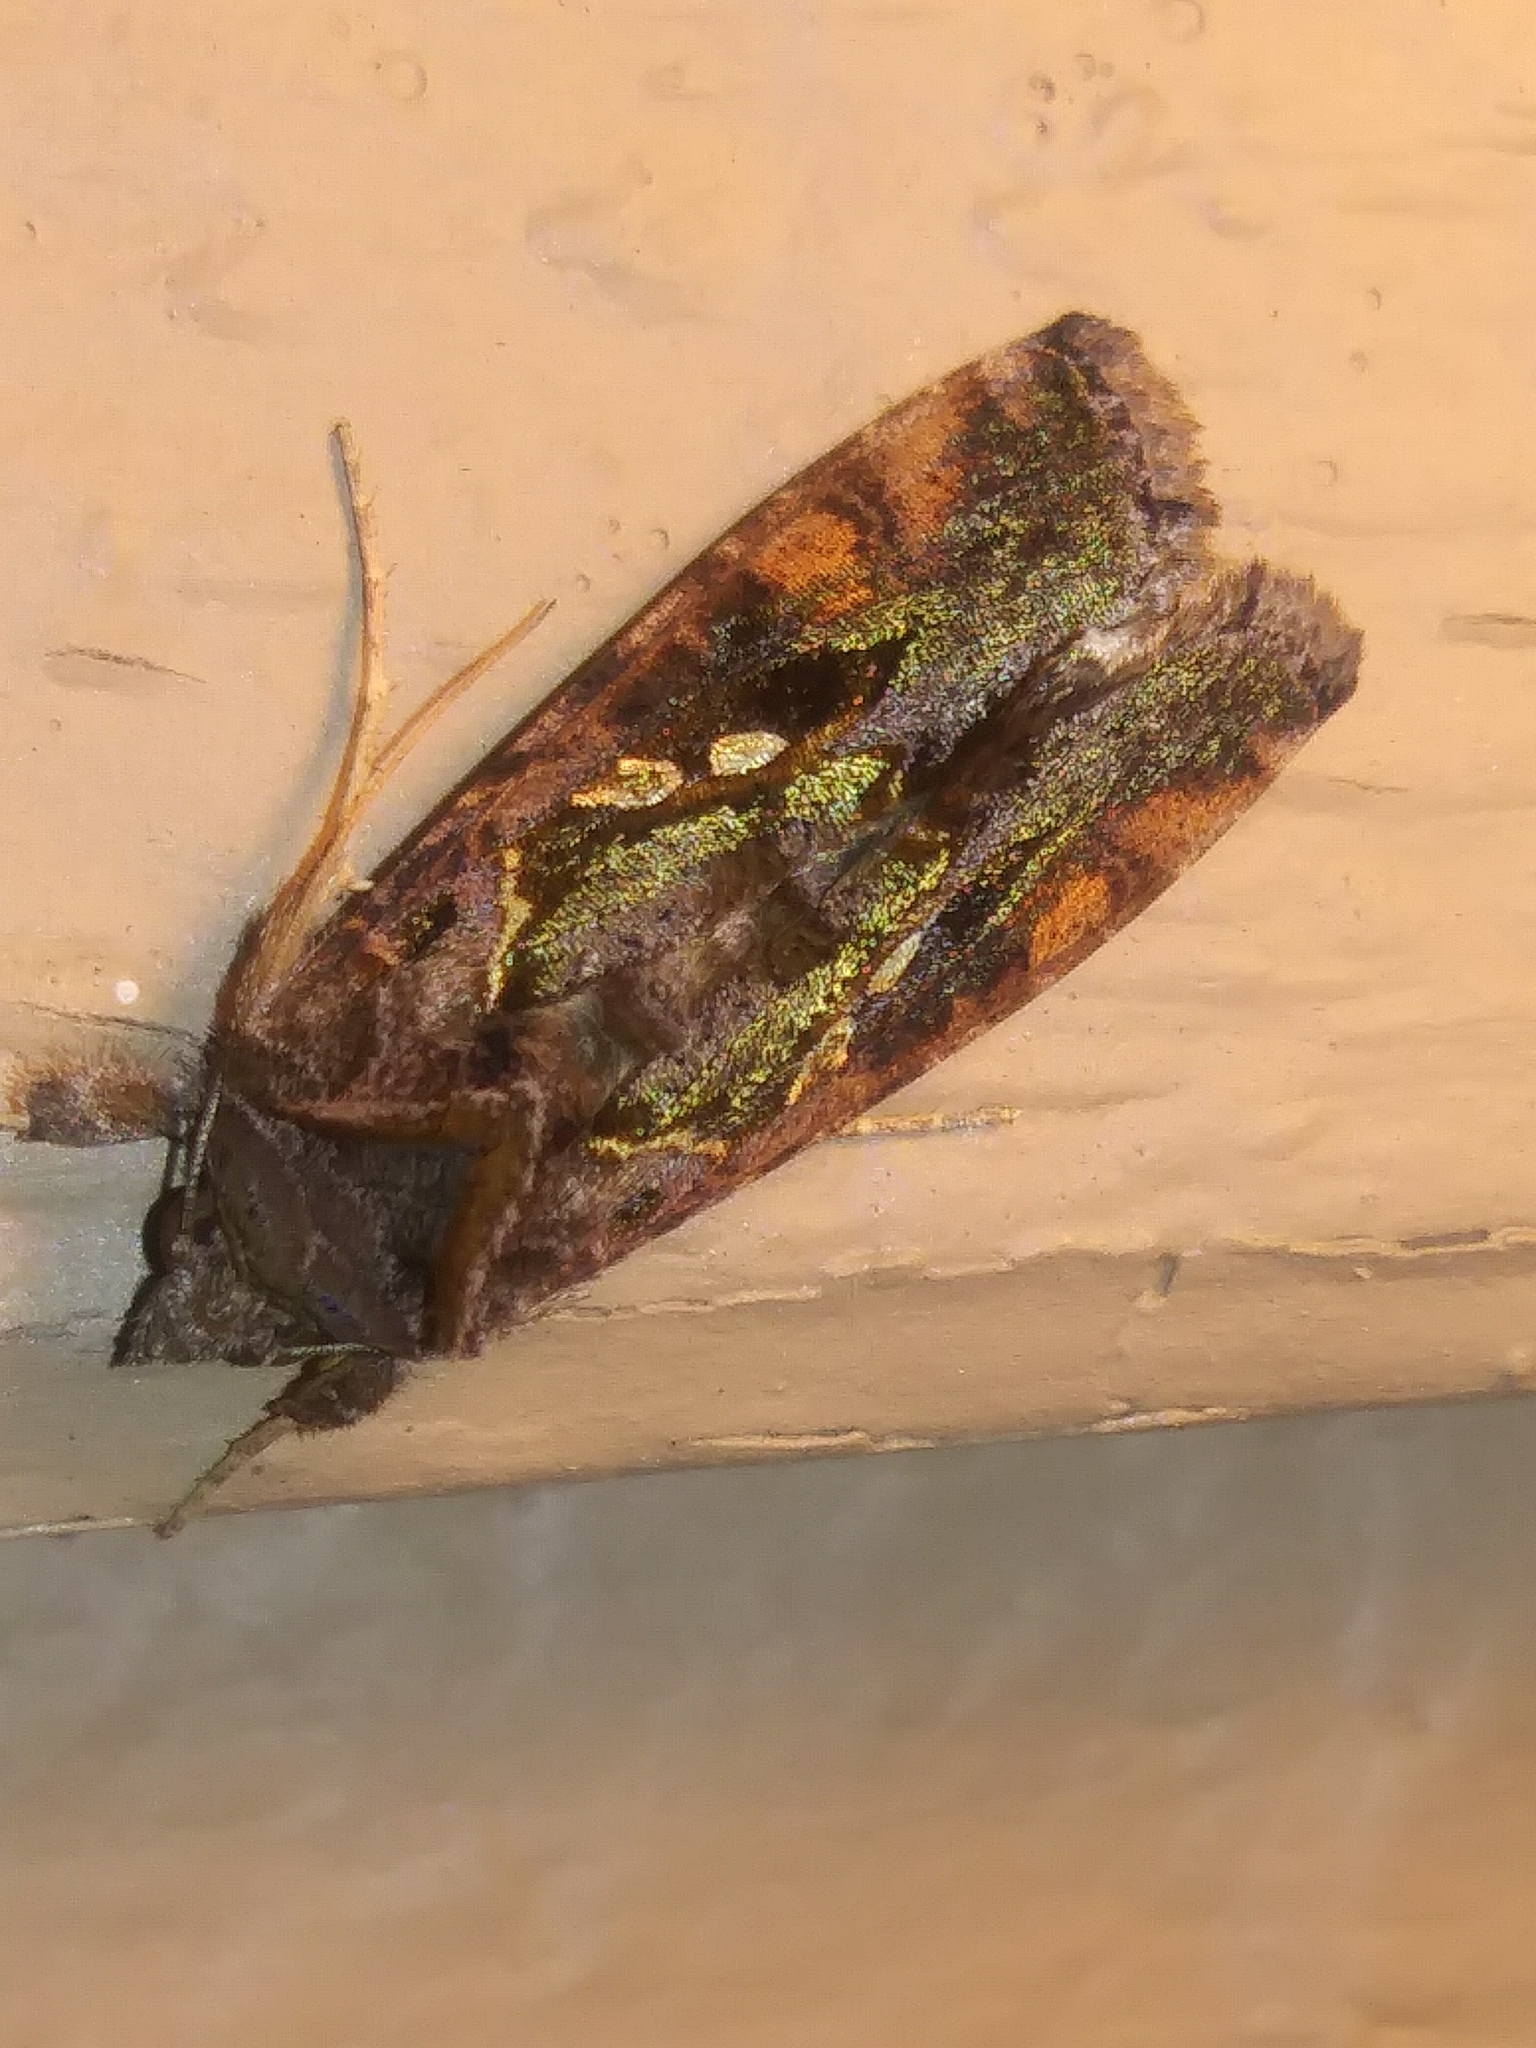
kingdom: Animalia
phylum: Arthropoda
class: Insecta
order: Lepidoptera
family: Noctuidae
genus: Chrysodeixis
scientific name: Chrysodeixis includens
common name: Cutworm moth
